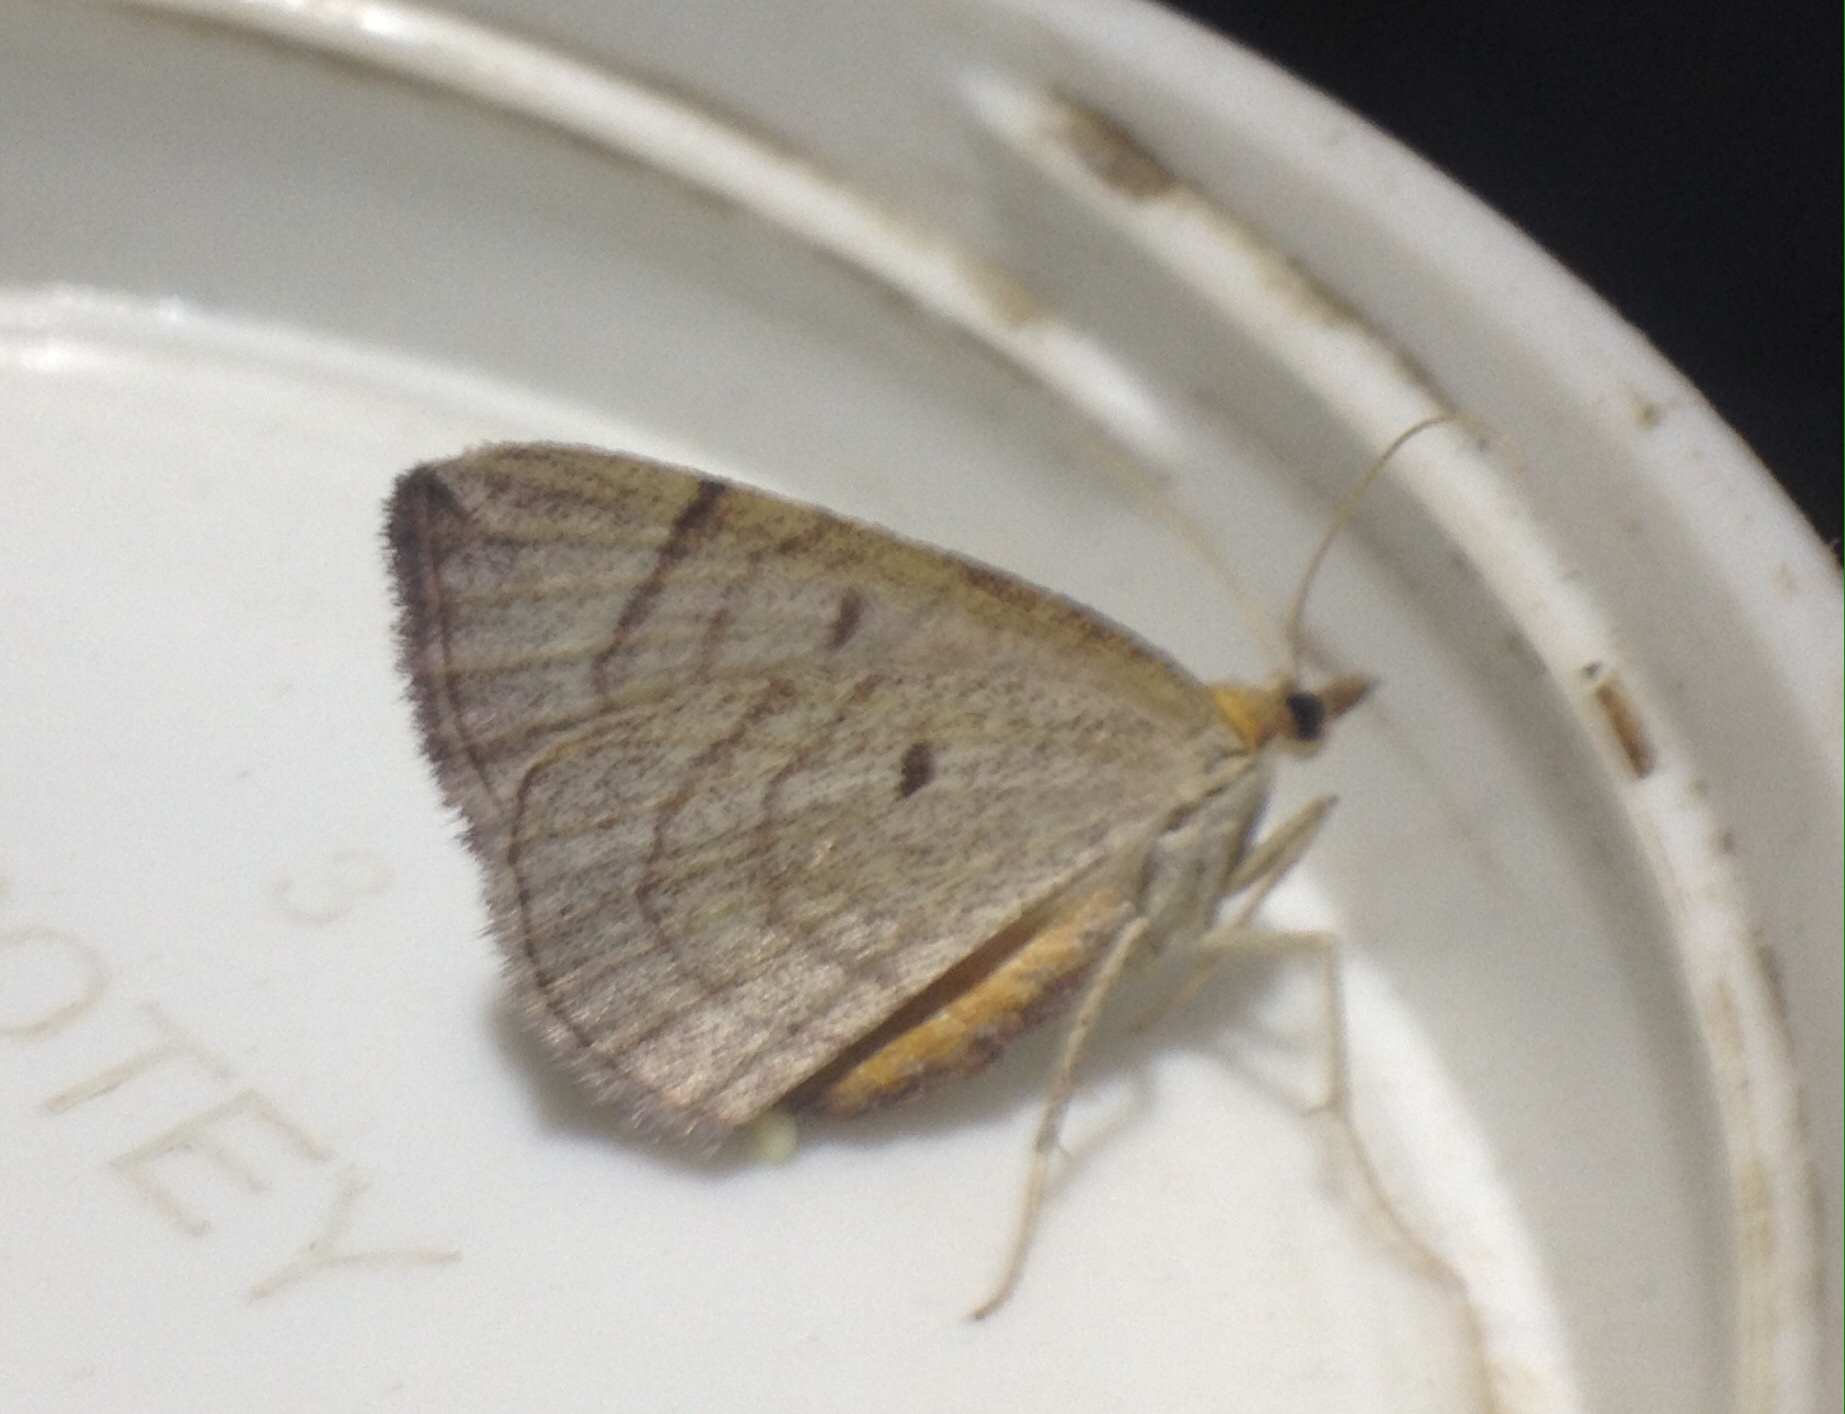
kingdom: Animalia
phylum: Arthropoda
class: Insecta
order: Lepidoptera
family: Geometridae
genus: Eulithis
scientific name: Eulithis testata
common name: Chevron
